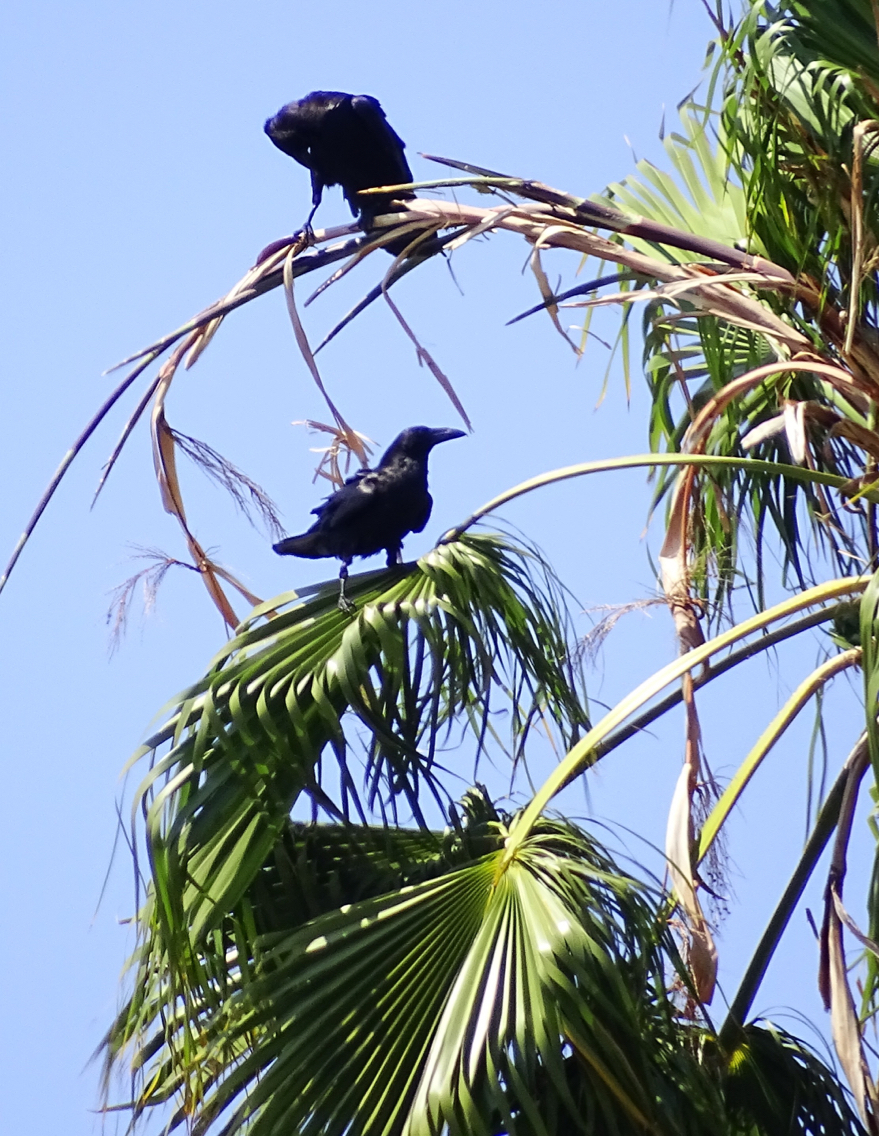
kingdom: Animalia
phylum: Chordata
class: Aves
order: Passeriformes
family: Corvidae
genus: Corvus
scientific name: Corvus corax
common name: Common raven
